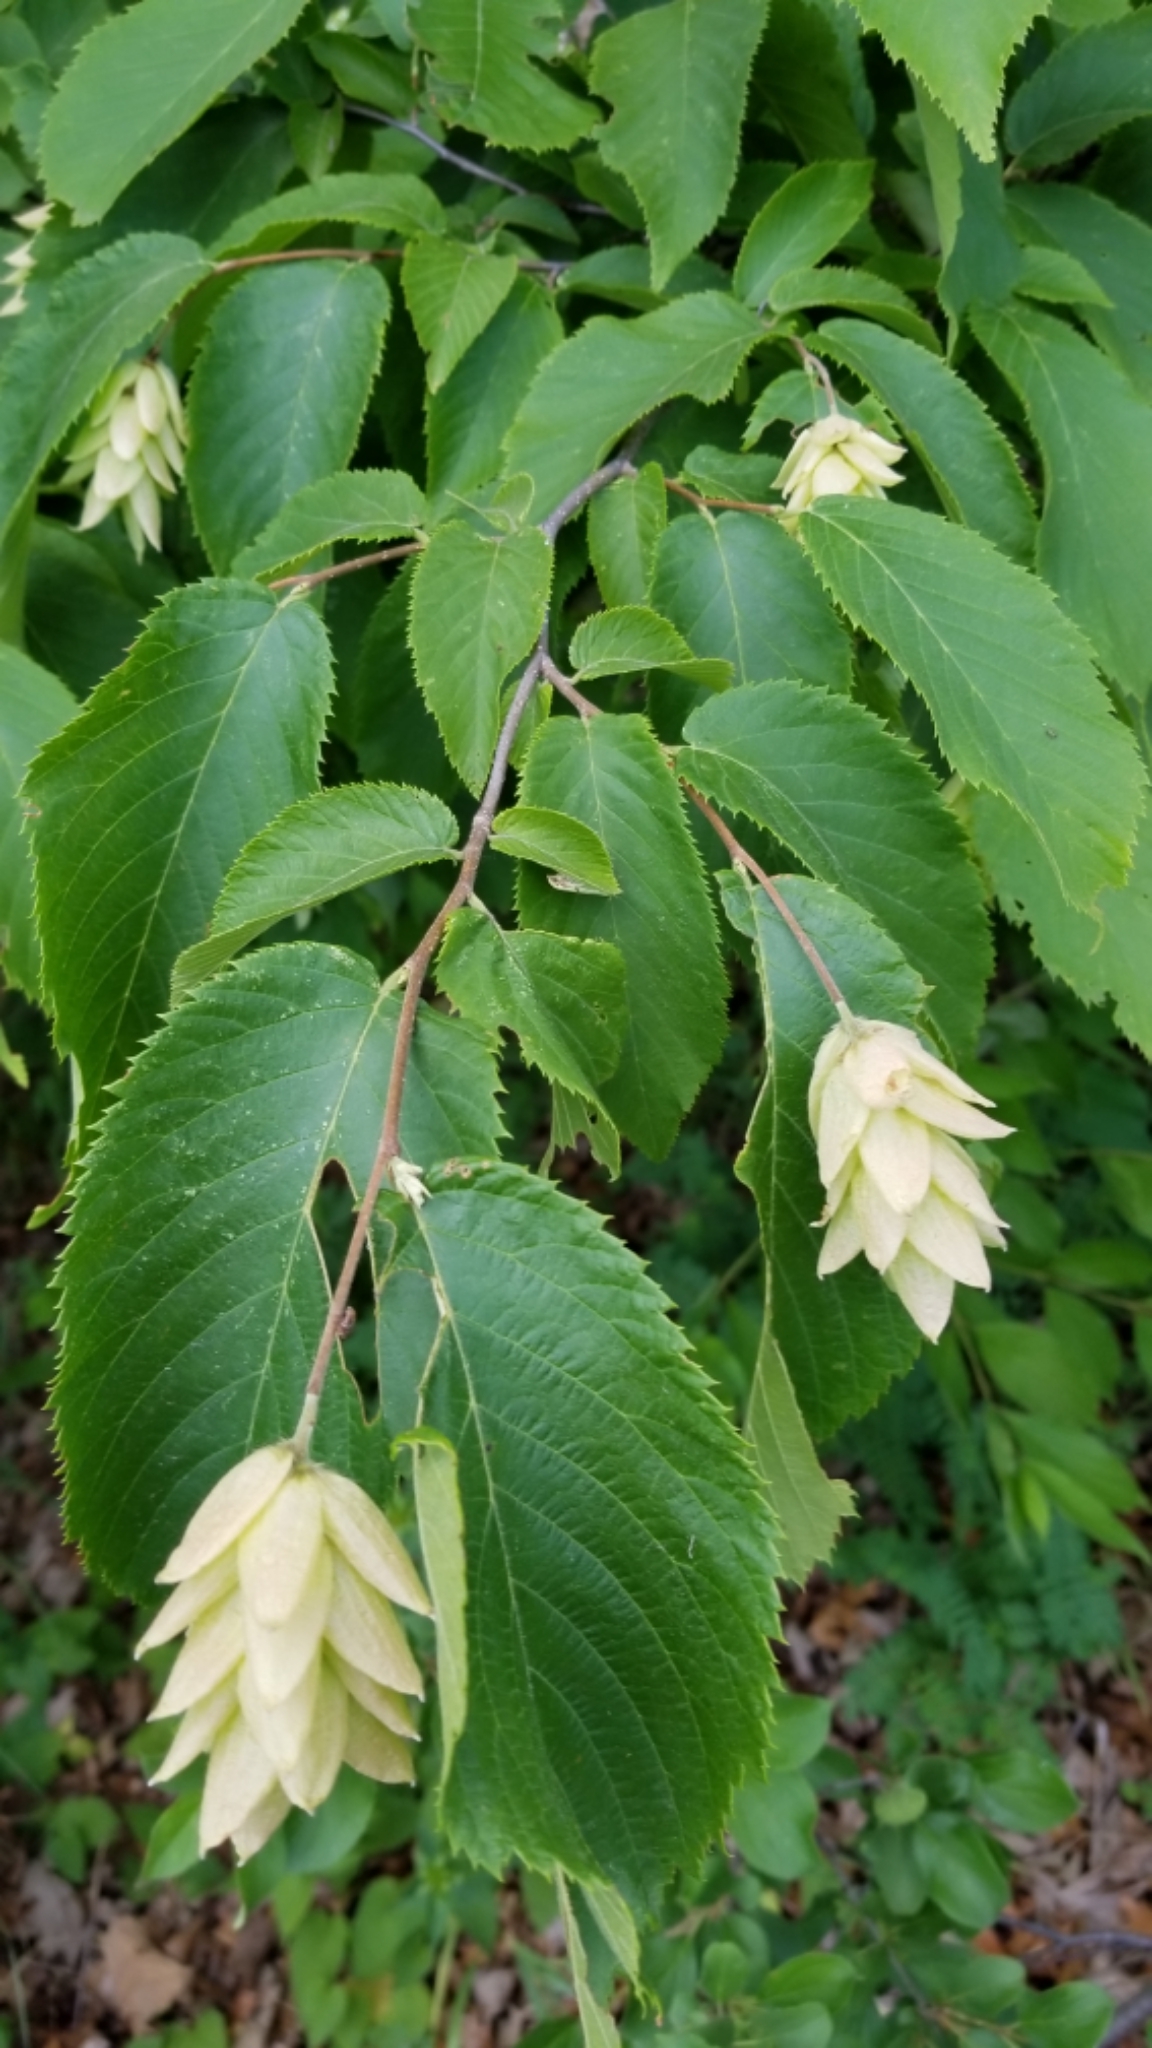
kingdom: Plantae
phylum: Tracheophyta
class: Magnoliopsida
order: Fagales
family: Betulaceae
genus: Ostrya
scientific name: Ostrya virginiana
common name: Ironwood
